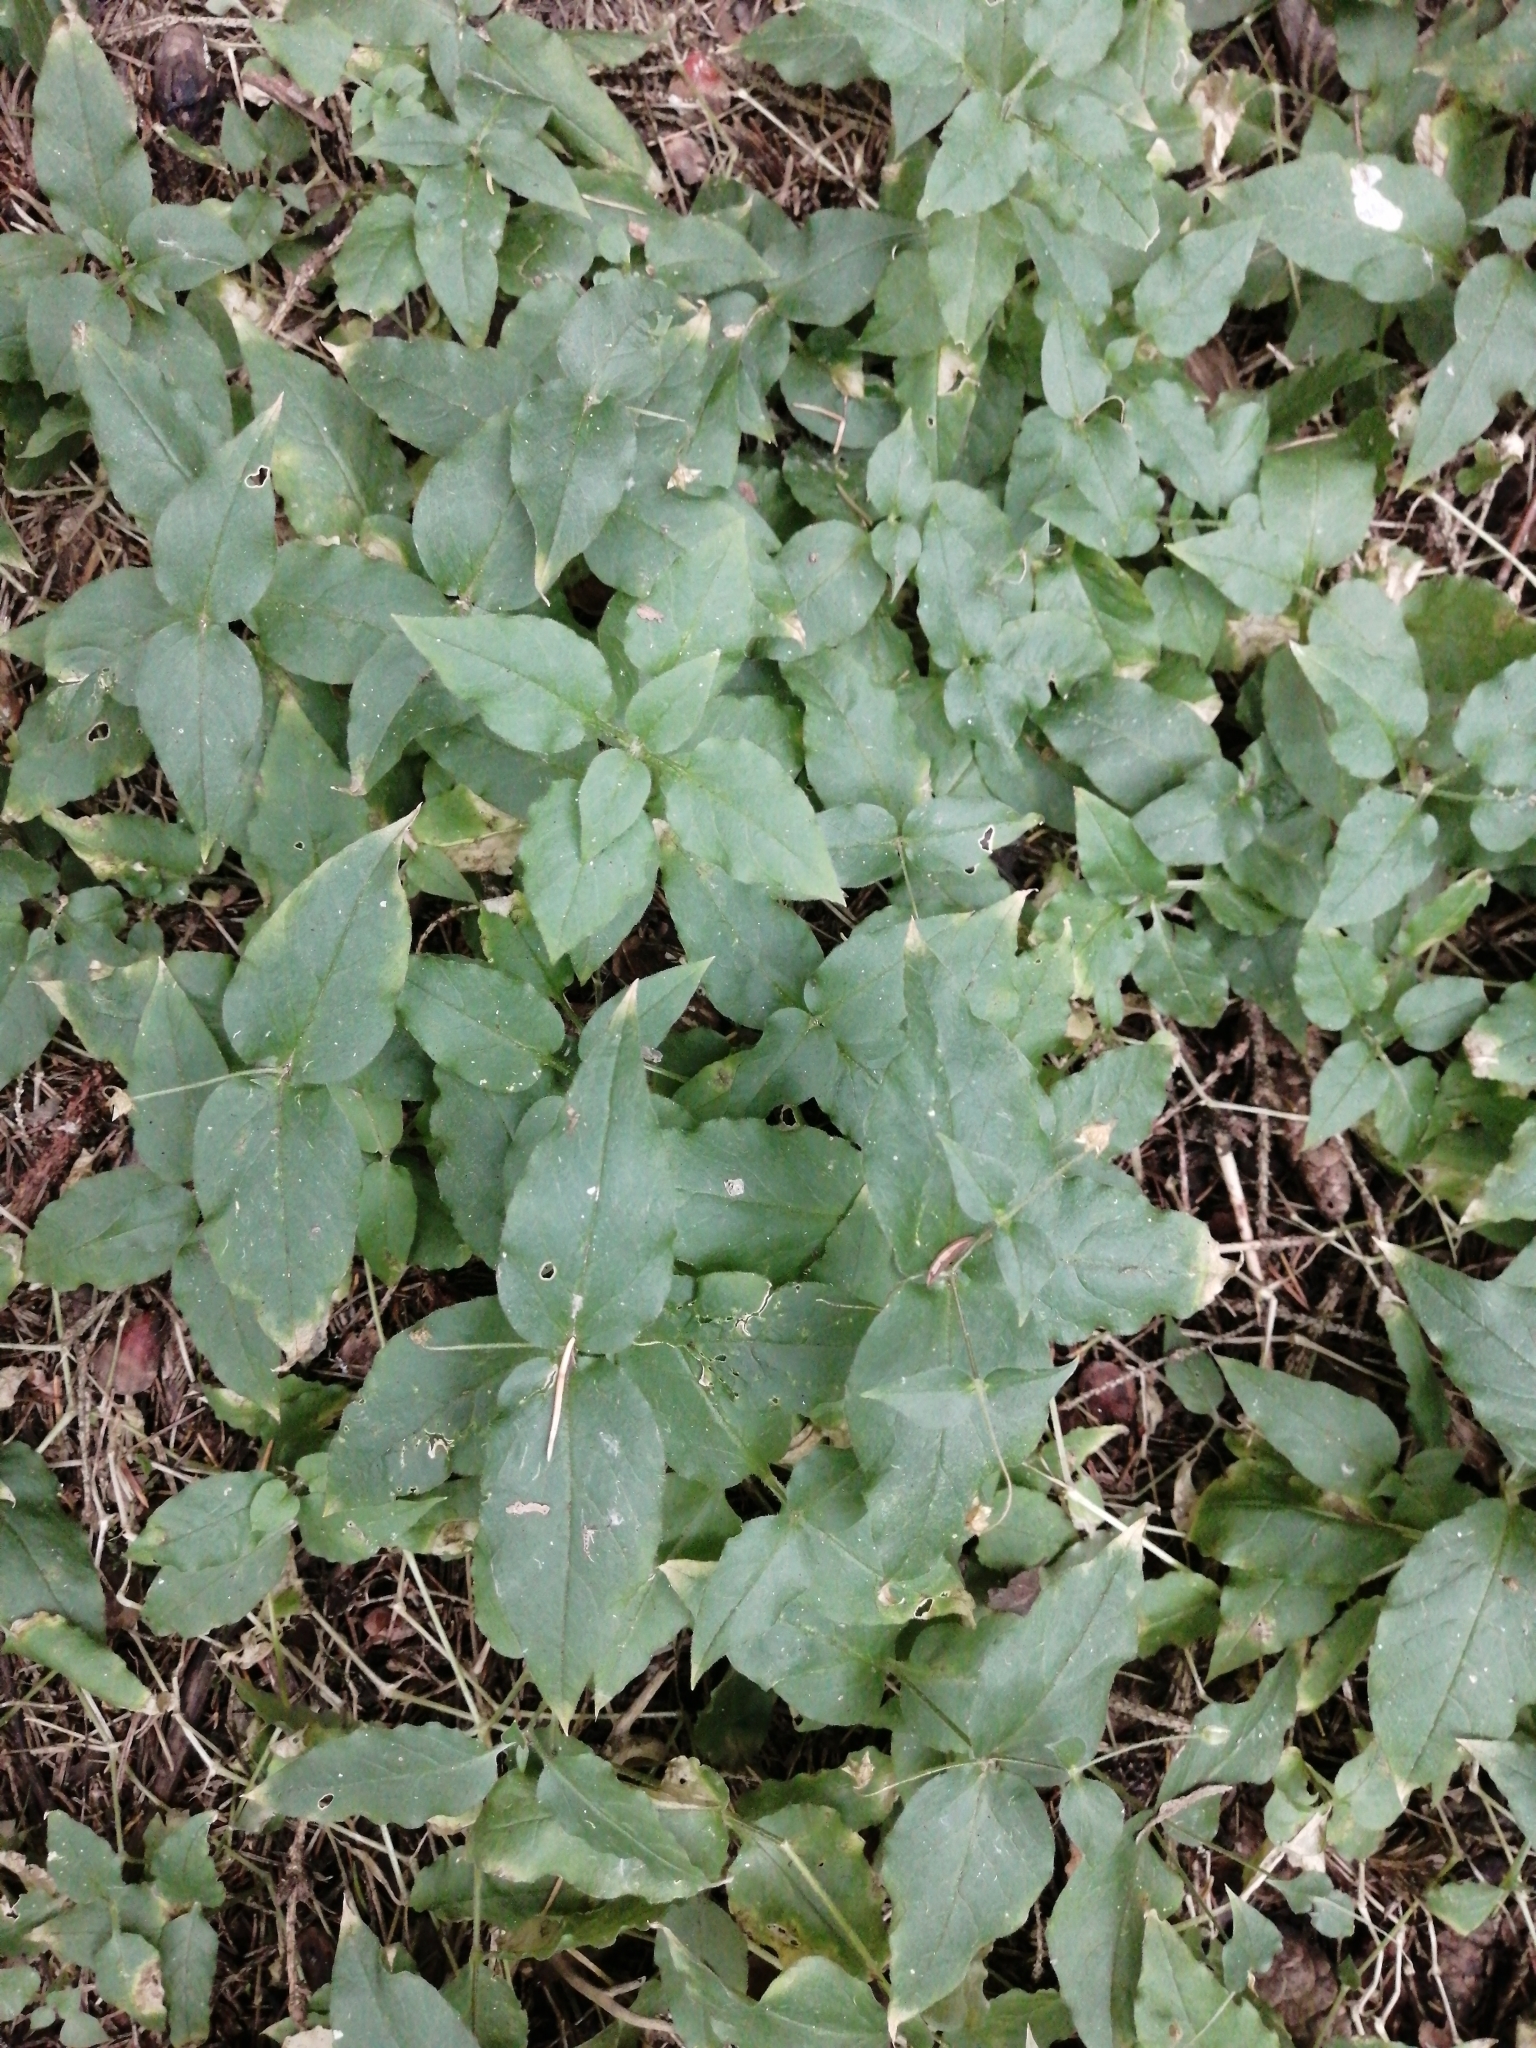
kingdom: Plantae
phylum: Tracheophyta
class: Magnoliopsida
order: Caryophyllales
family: Caryophyllaceae
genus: Stellaria
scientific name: Stellaria bungeana
